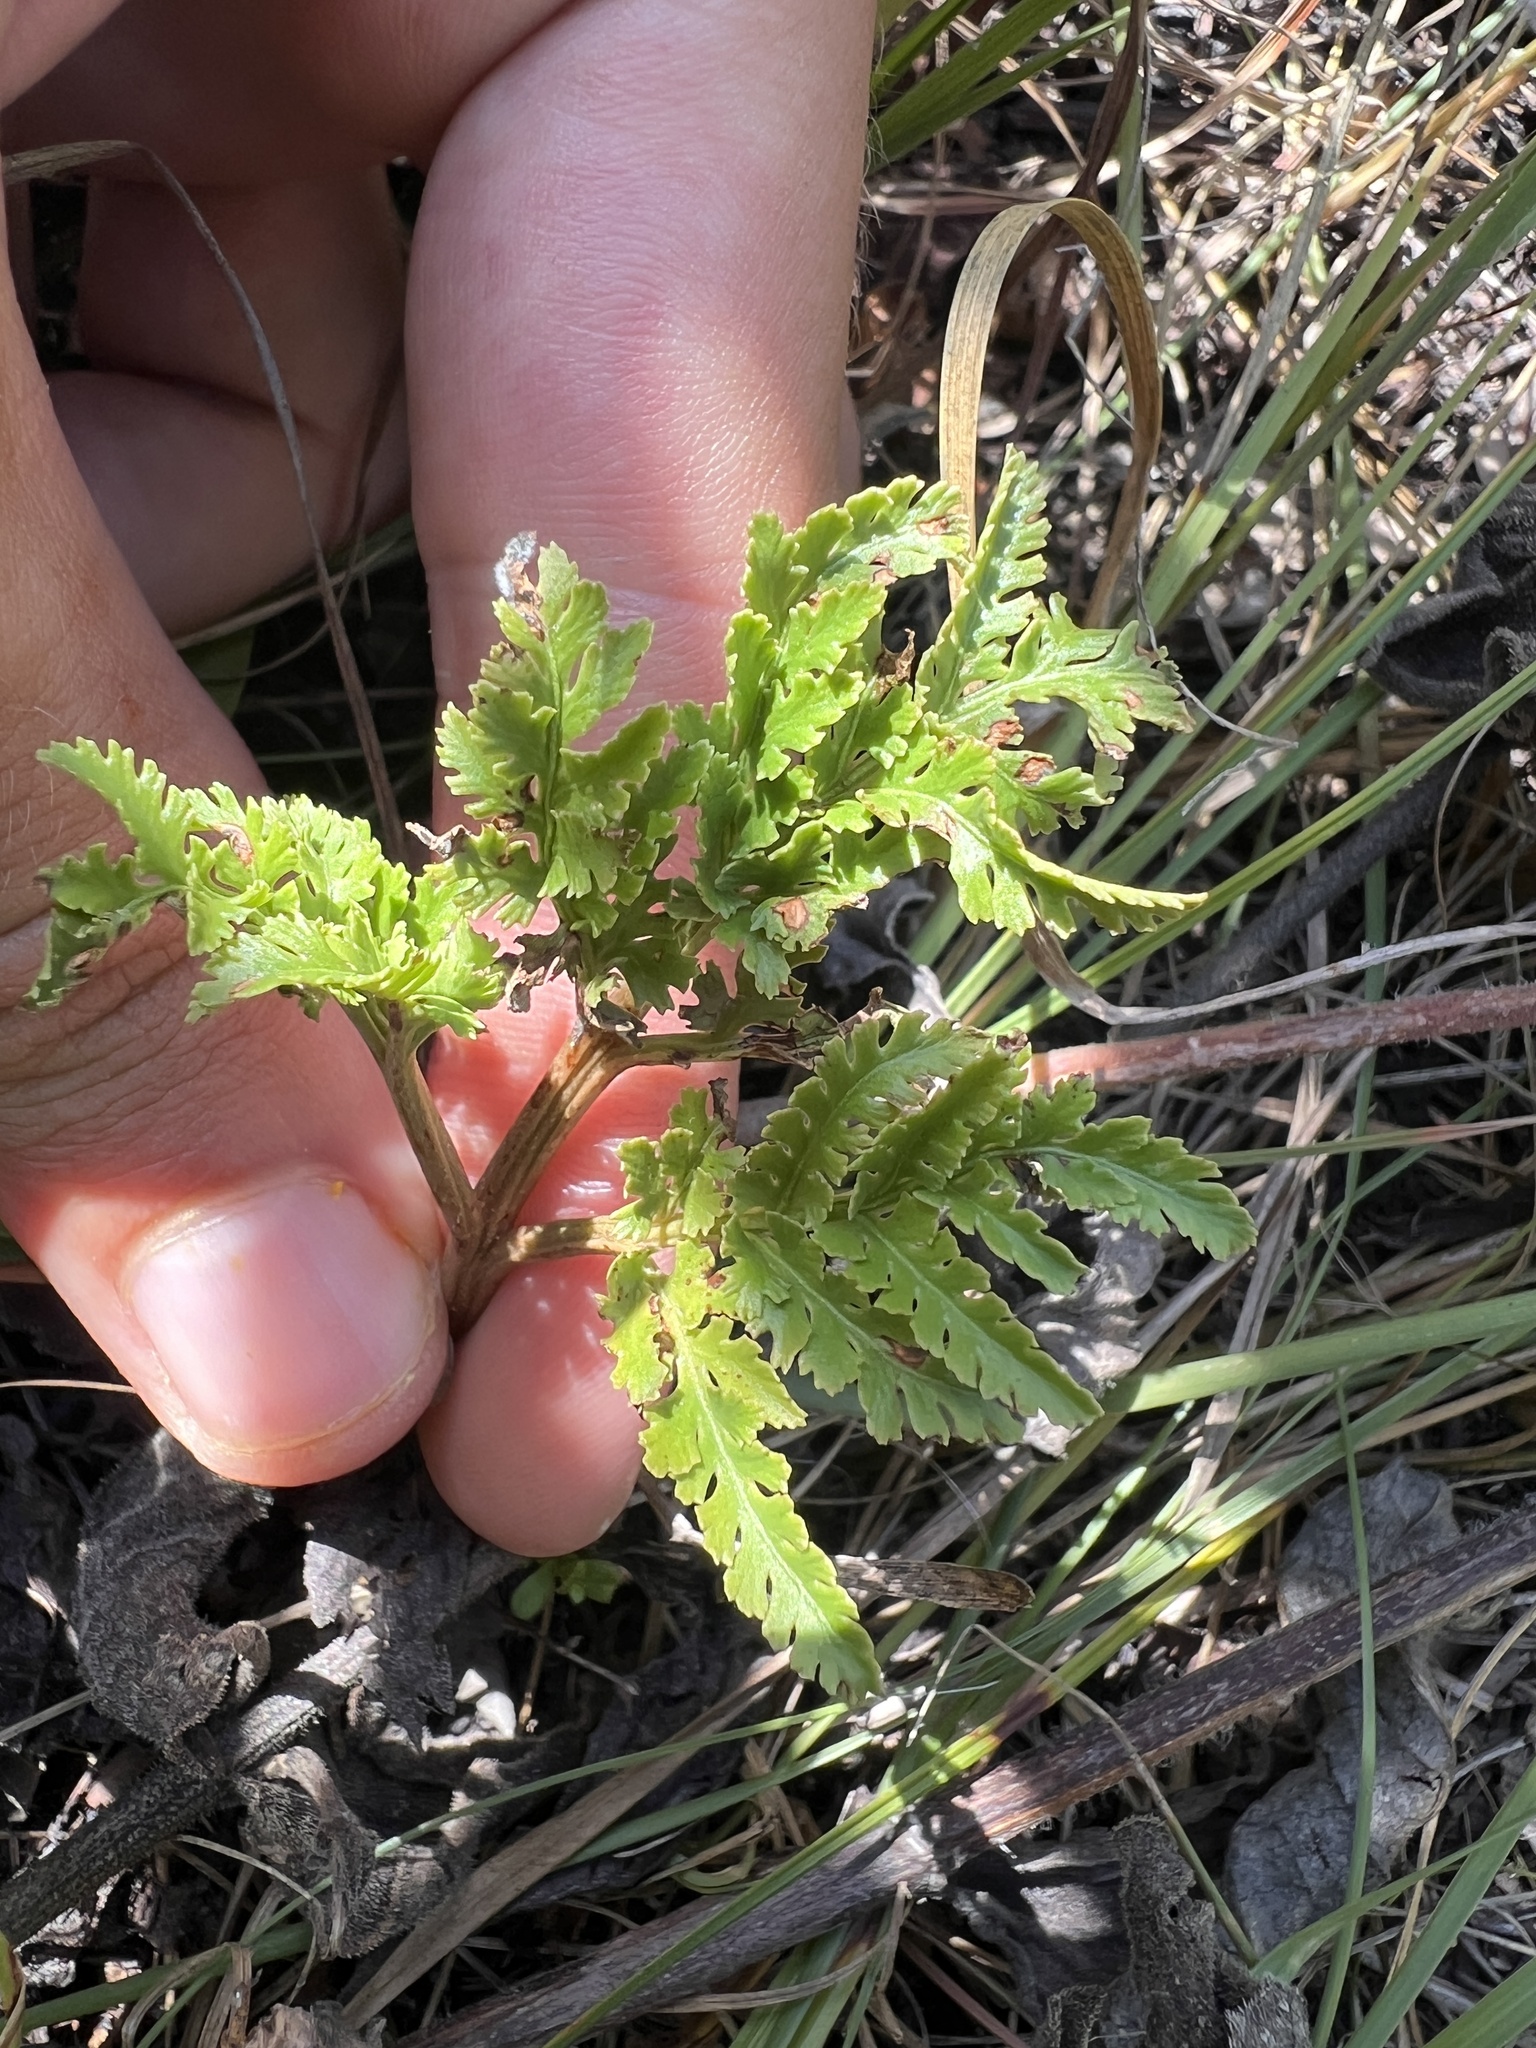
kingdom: Plantae
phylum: Tracheophyta
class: Polypodiopsida
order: Ophioglossales
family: Ophioglossaceae
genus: Sceptridium
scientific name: Sceptridium dissectum
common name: Cut-leaved grapefern
